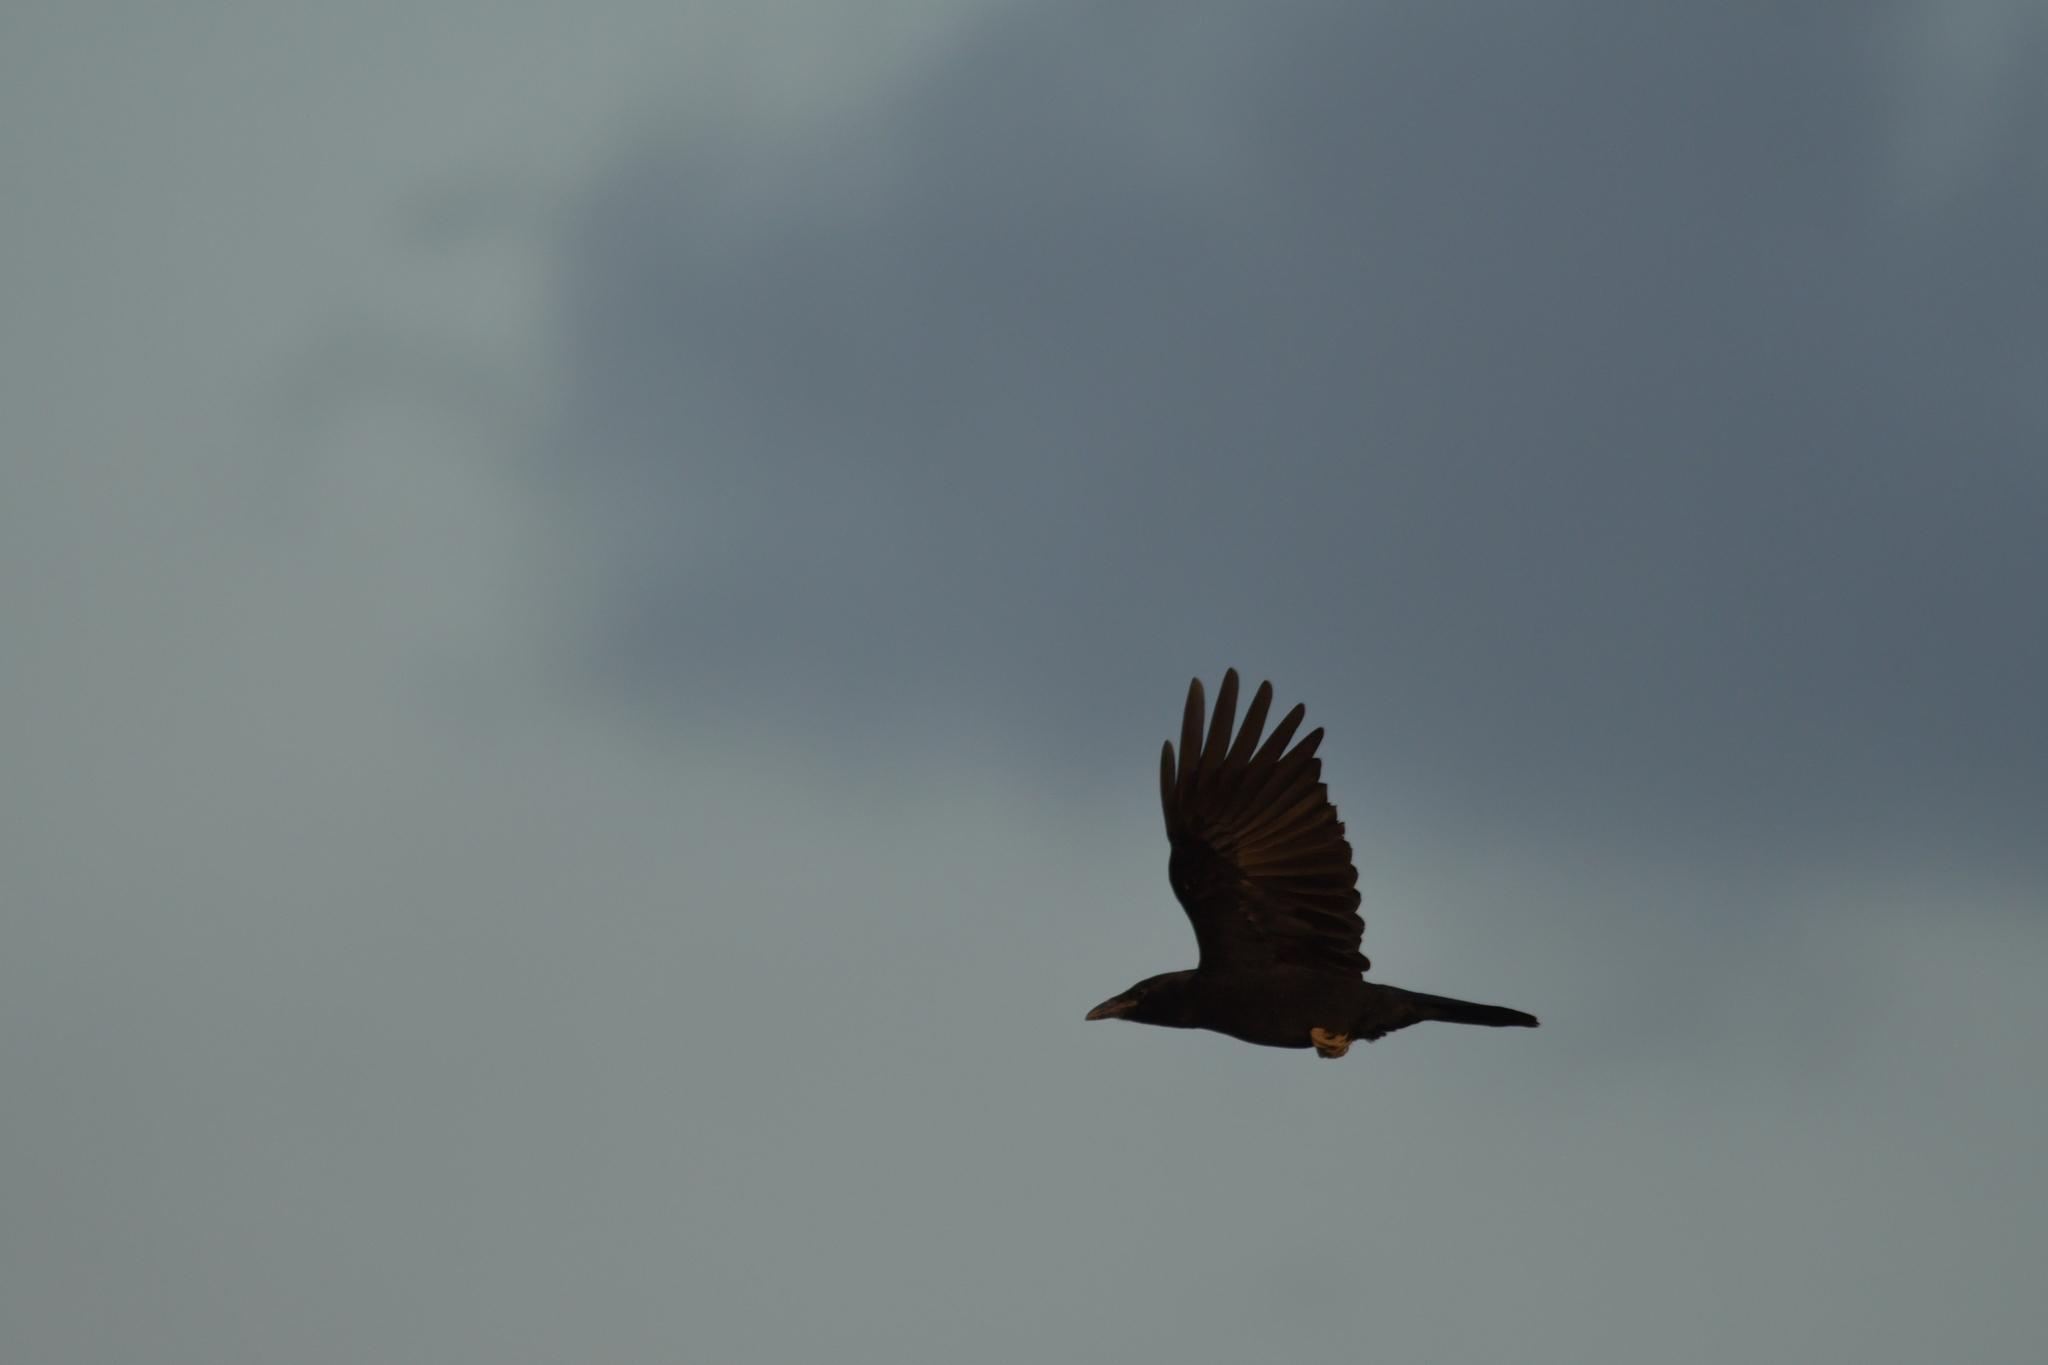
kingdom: Animalia
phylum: Chordata
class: Aves
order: Passeriformes
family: Corvidae
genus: Corvus
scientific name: Corvus corone
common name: Carrion crow
